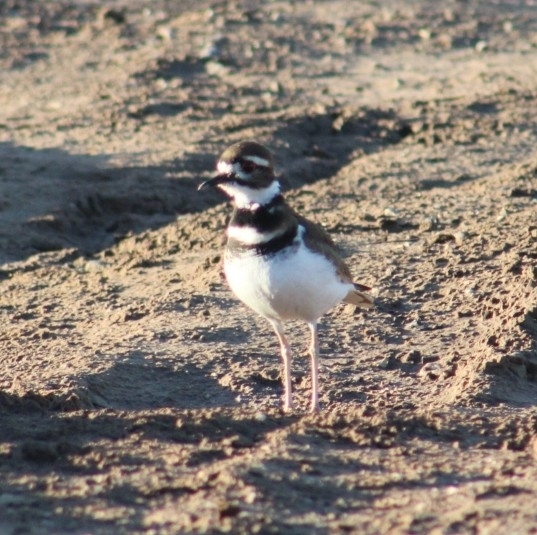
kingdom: Animalia
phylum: Chordata
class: Aves
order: Charadriiformes
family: Charadriidae
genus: Charadrius
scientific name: Charadrius vociferus
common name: Killdeer
